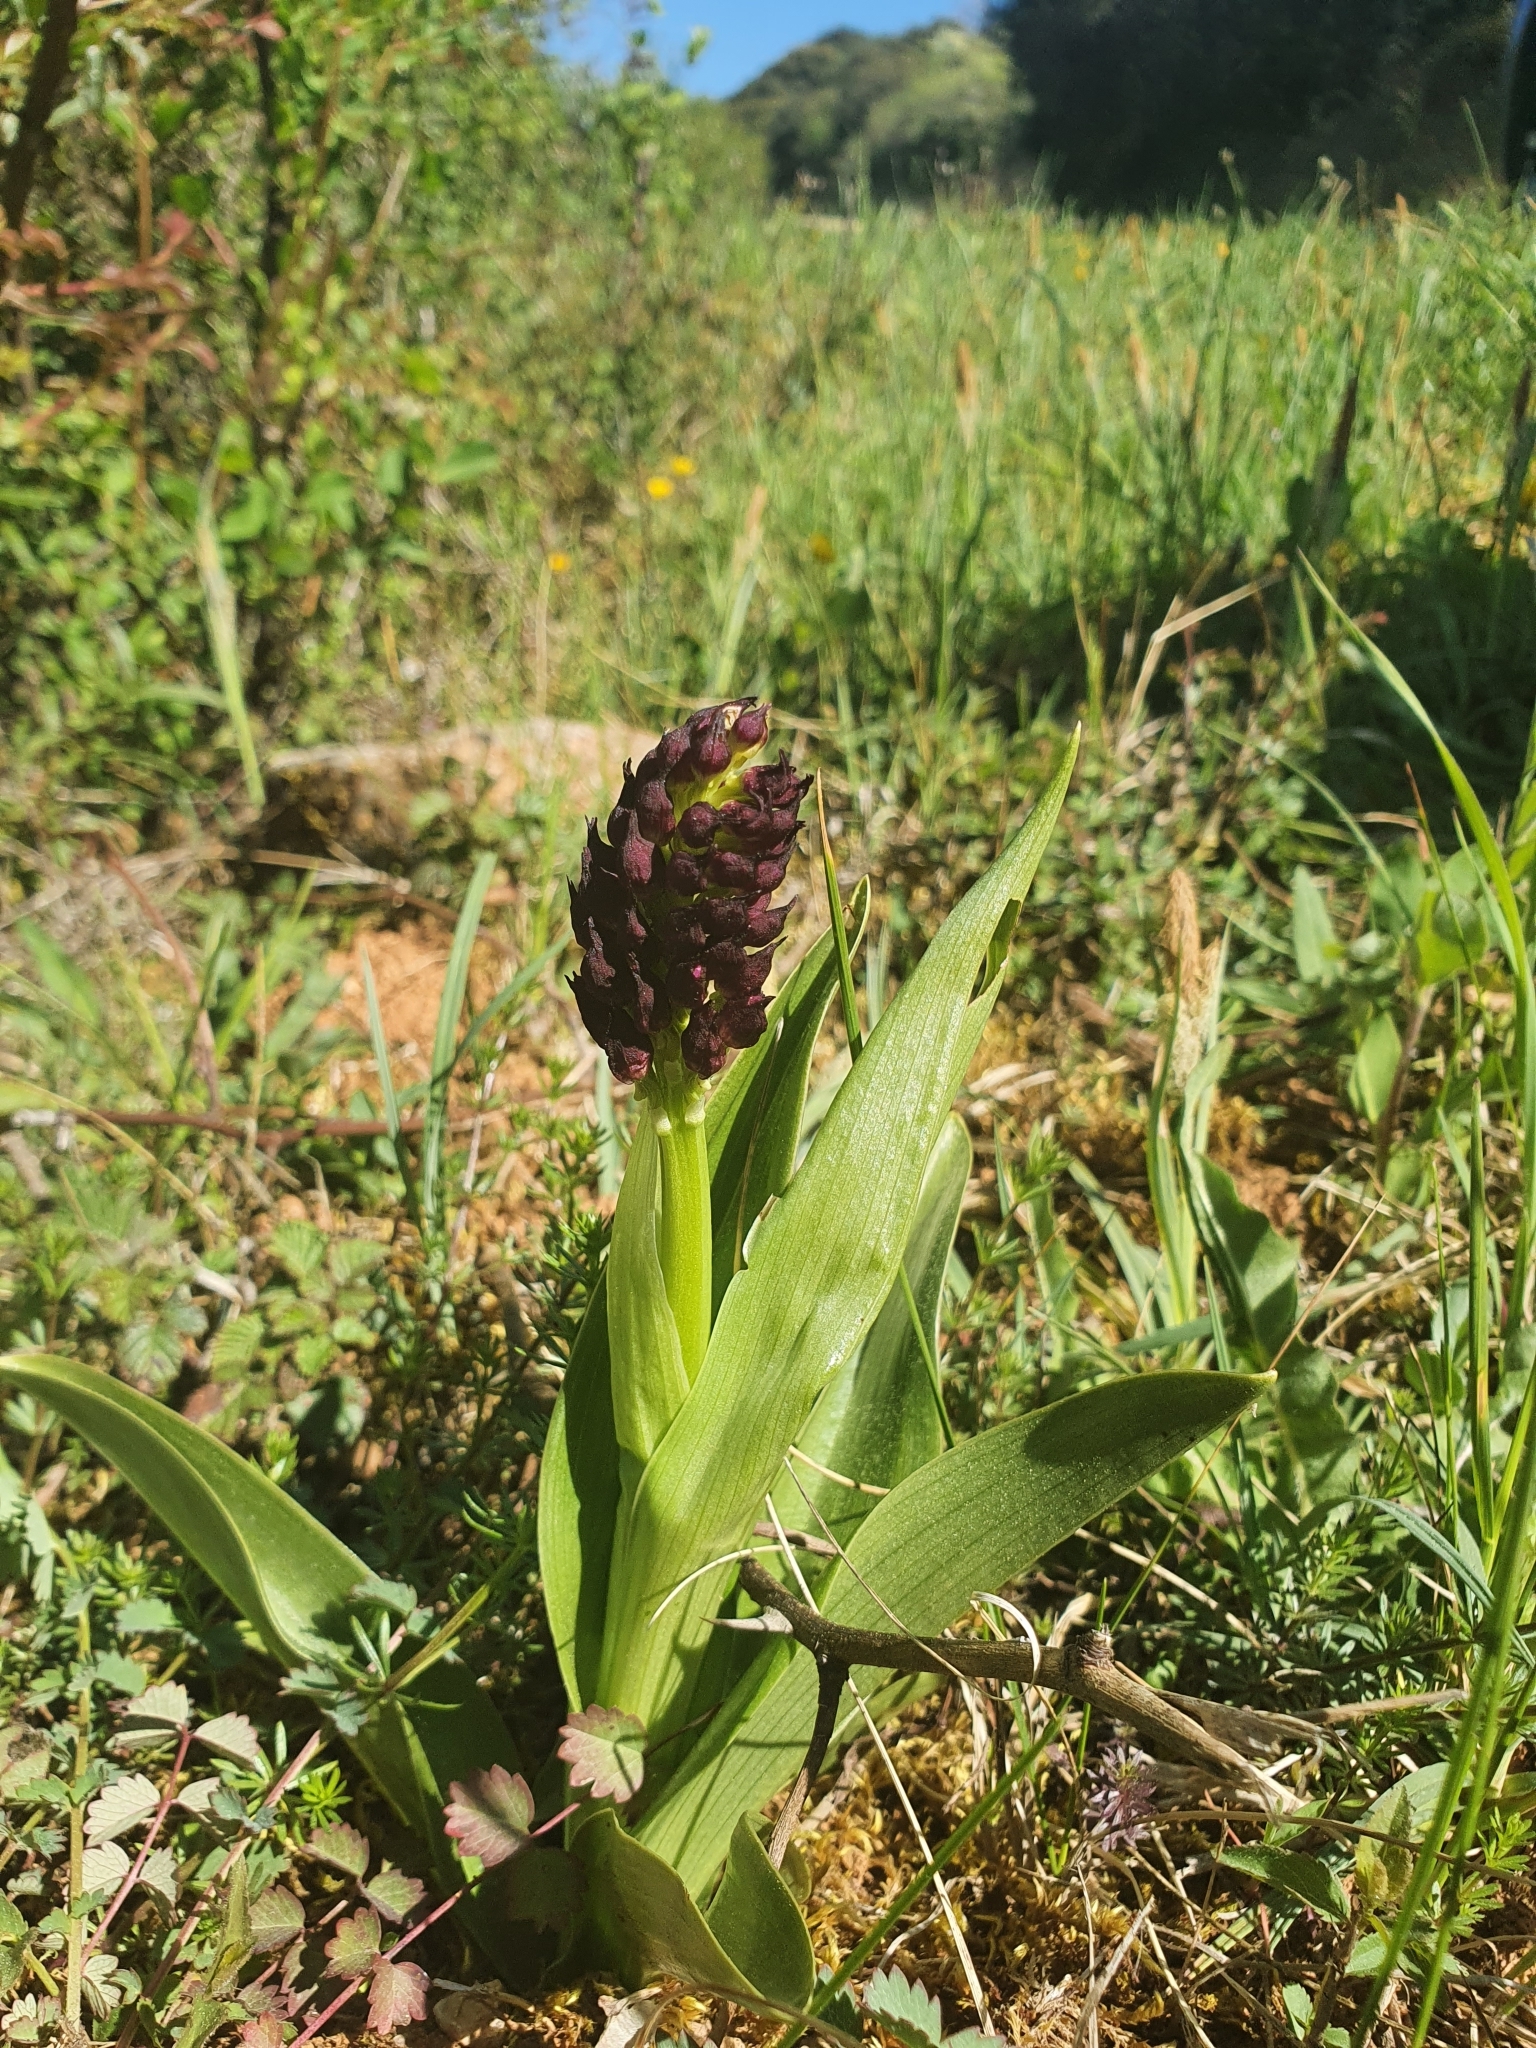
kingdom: Plantae
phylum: Tracheophyta
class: Liliopsida
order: Asparagales
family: Orchidaceae
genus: Orchis
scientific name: Orchis purpurea
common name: Lady orchid
